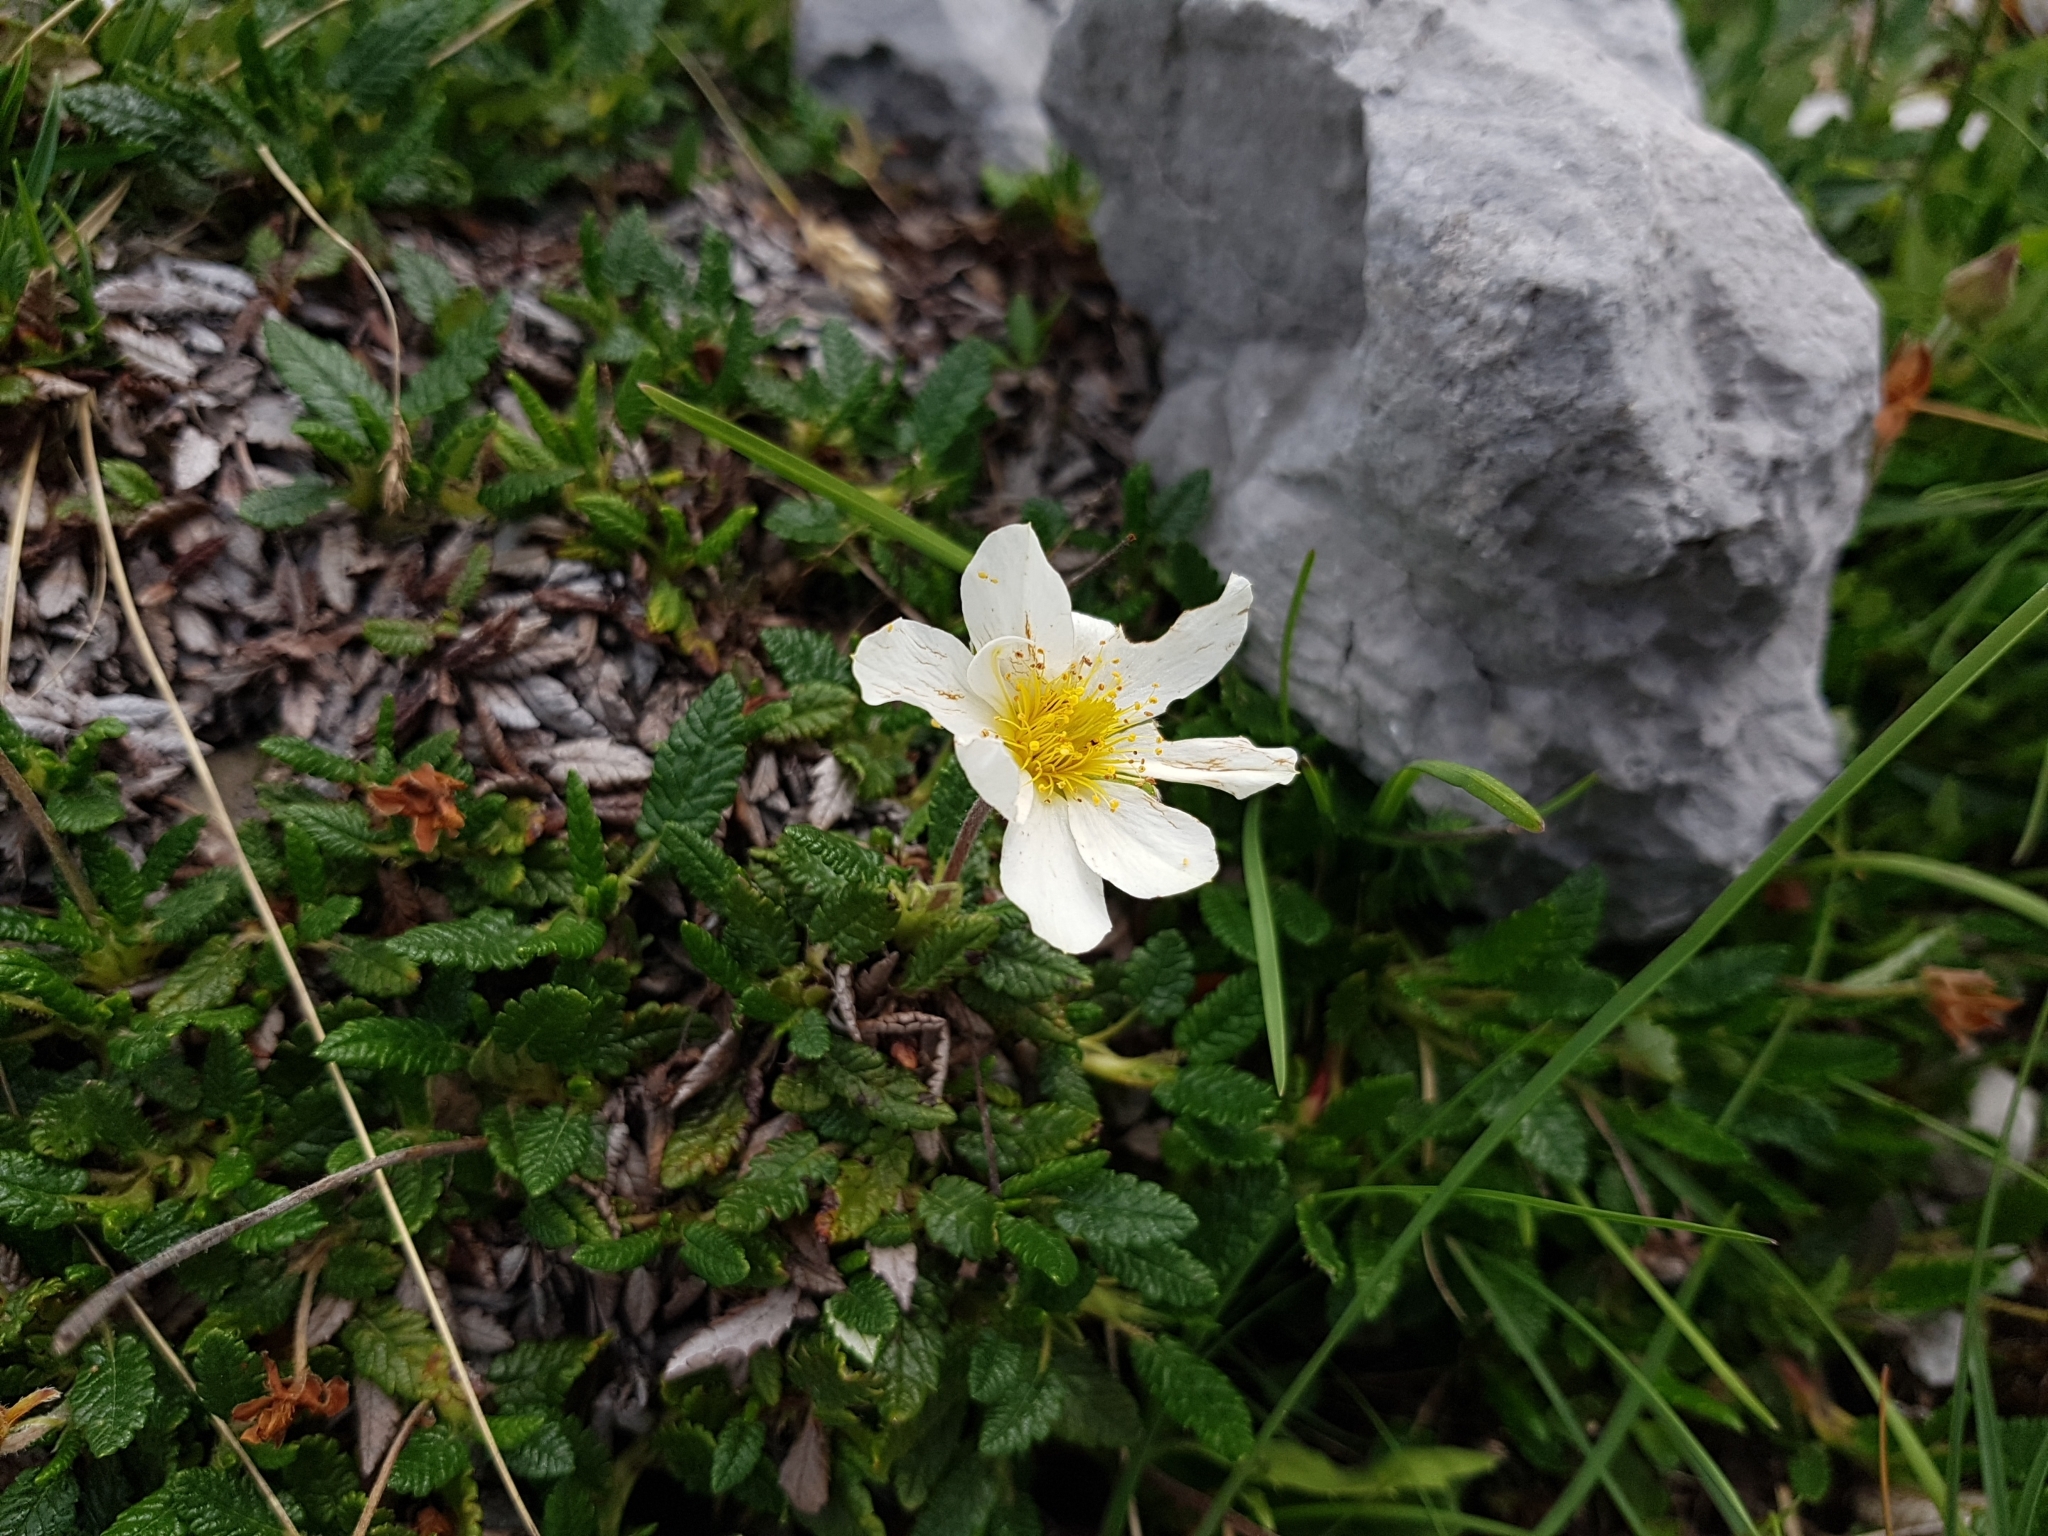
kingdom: Plantae
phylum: Tracheophyta
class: Magnoliopsida
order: Rosales
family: Rosaceae
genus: Dryas
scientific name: Dryas octopetala
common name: Eight-petal mountain-avens
